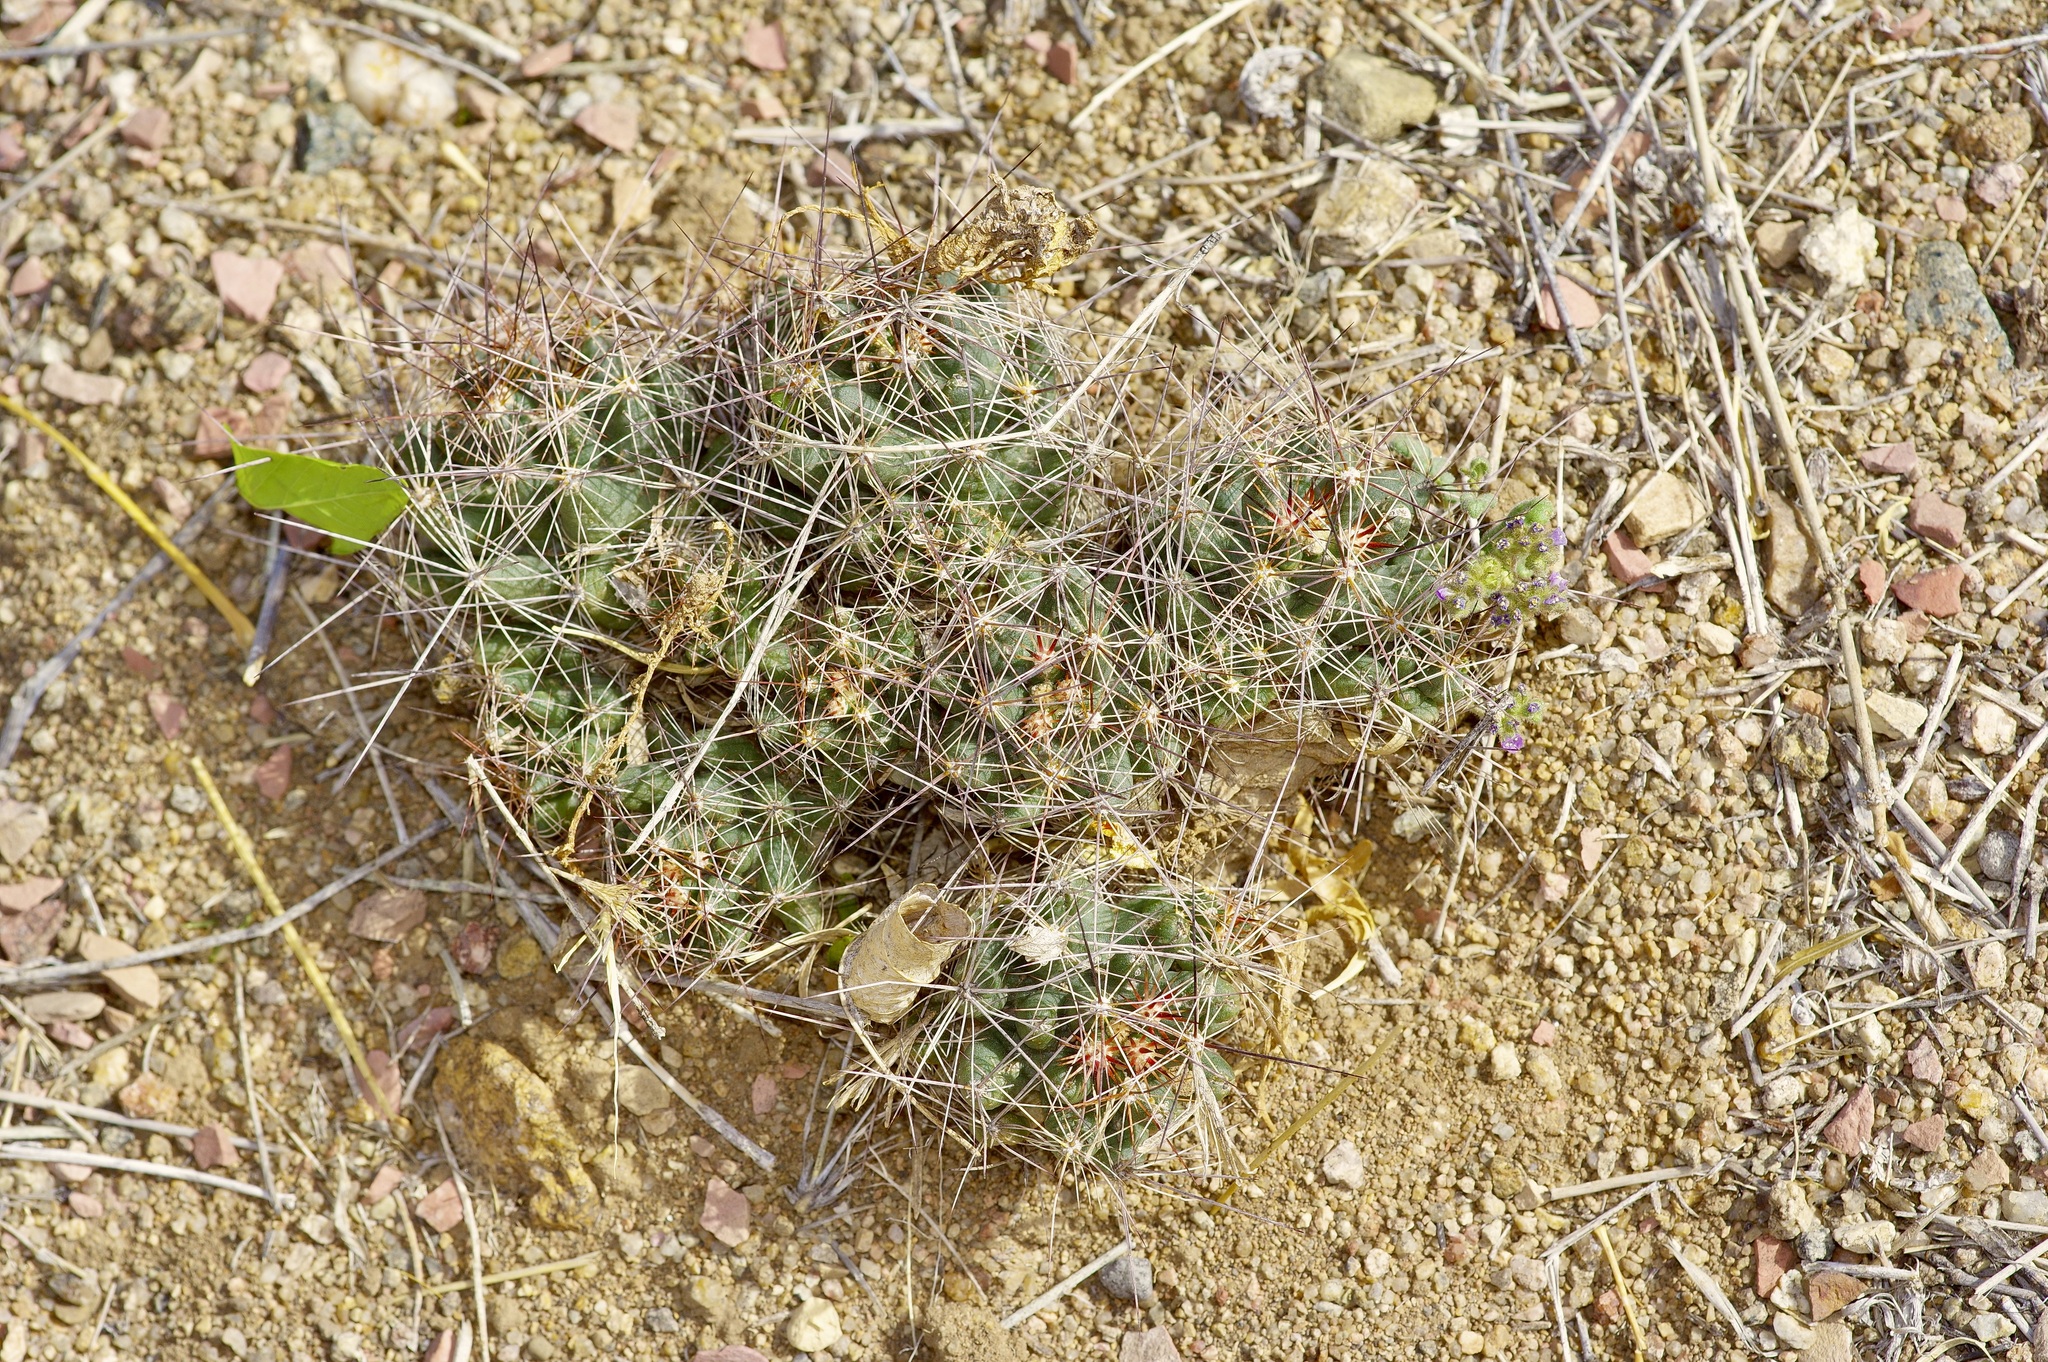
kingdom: Plantae
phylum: Tracheophyta
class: Magnoliopsida
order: Caryophyllales
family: Cactaceae
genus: Coryphantha
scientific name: Coryphantha macromeris
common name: Nipple beehive cactus
